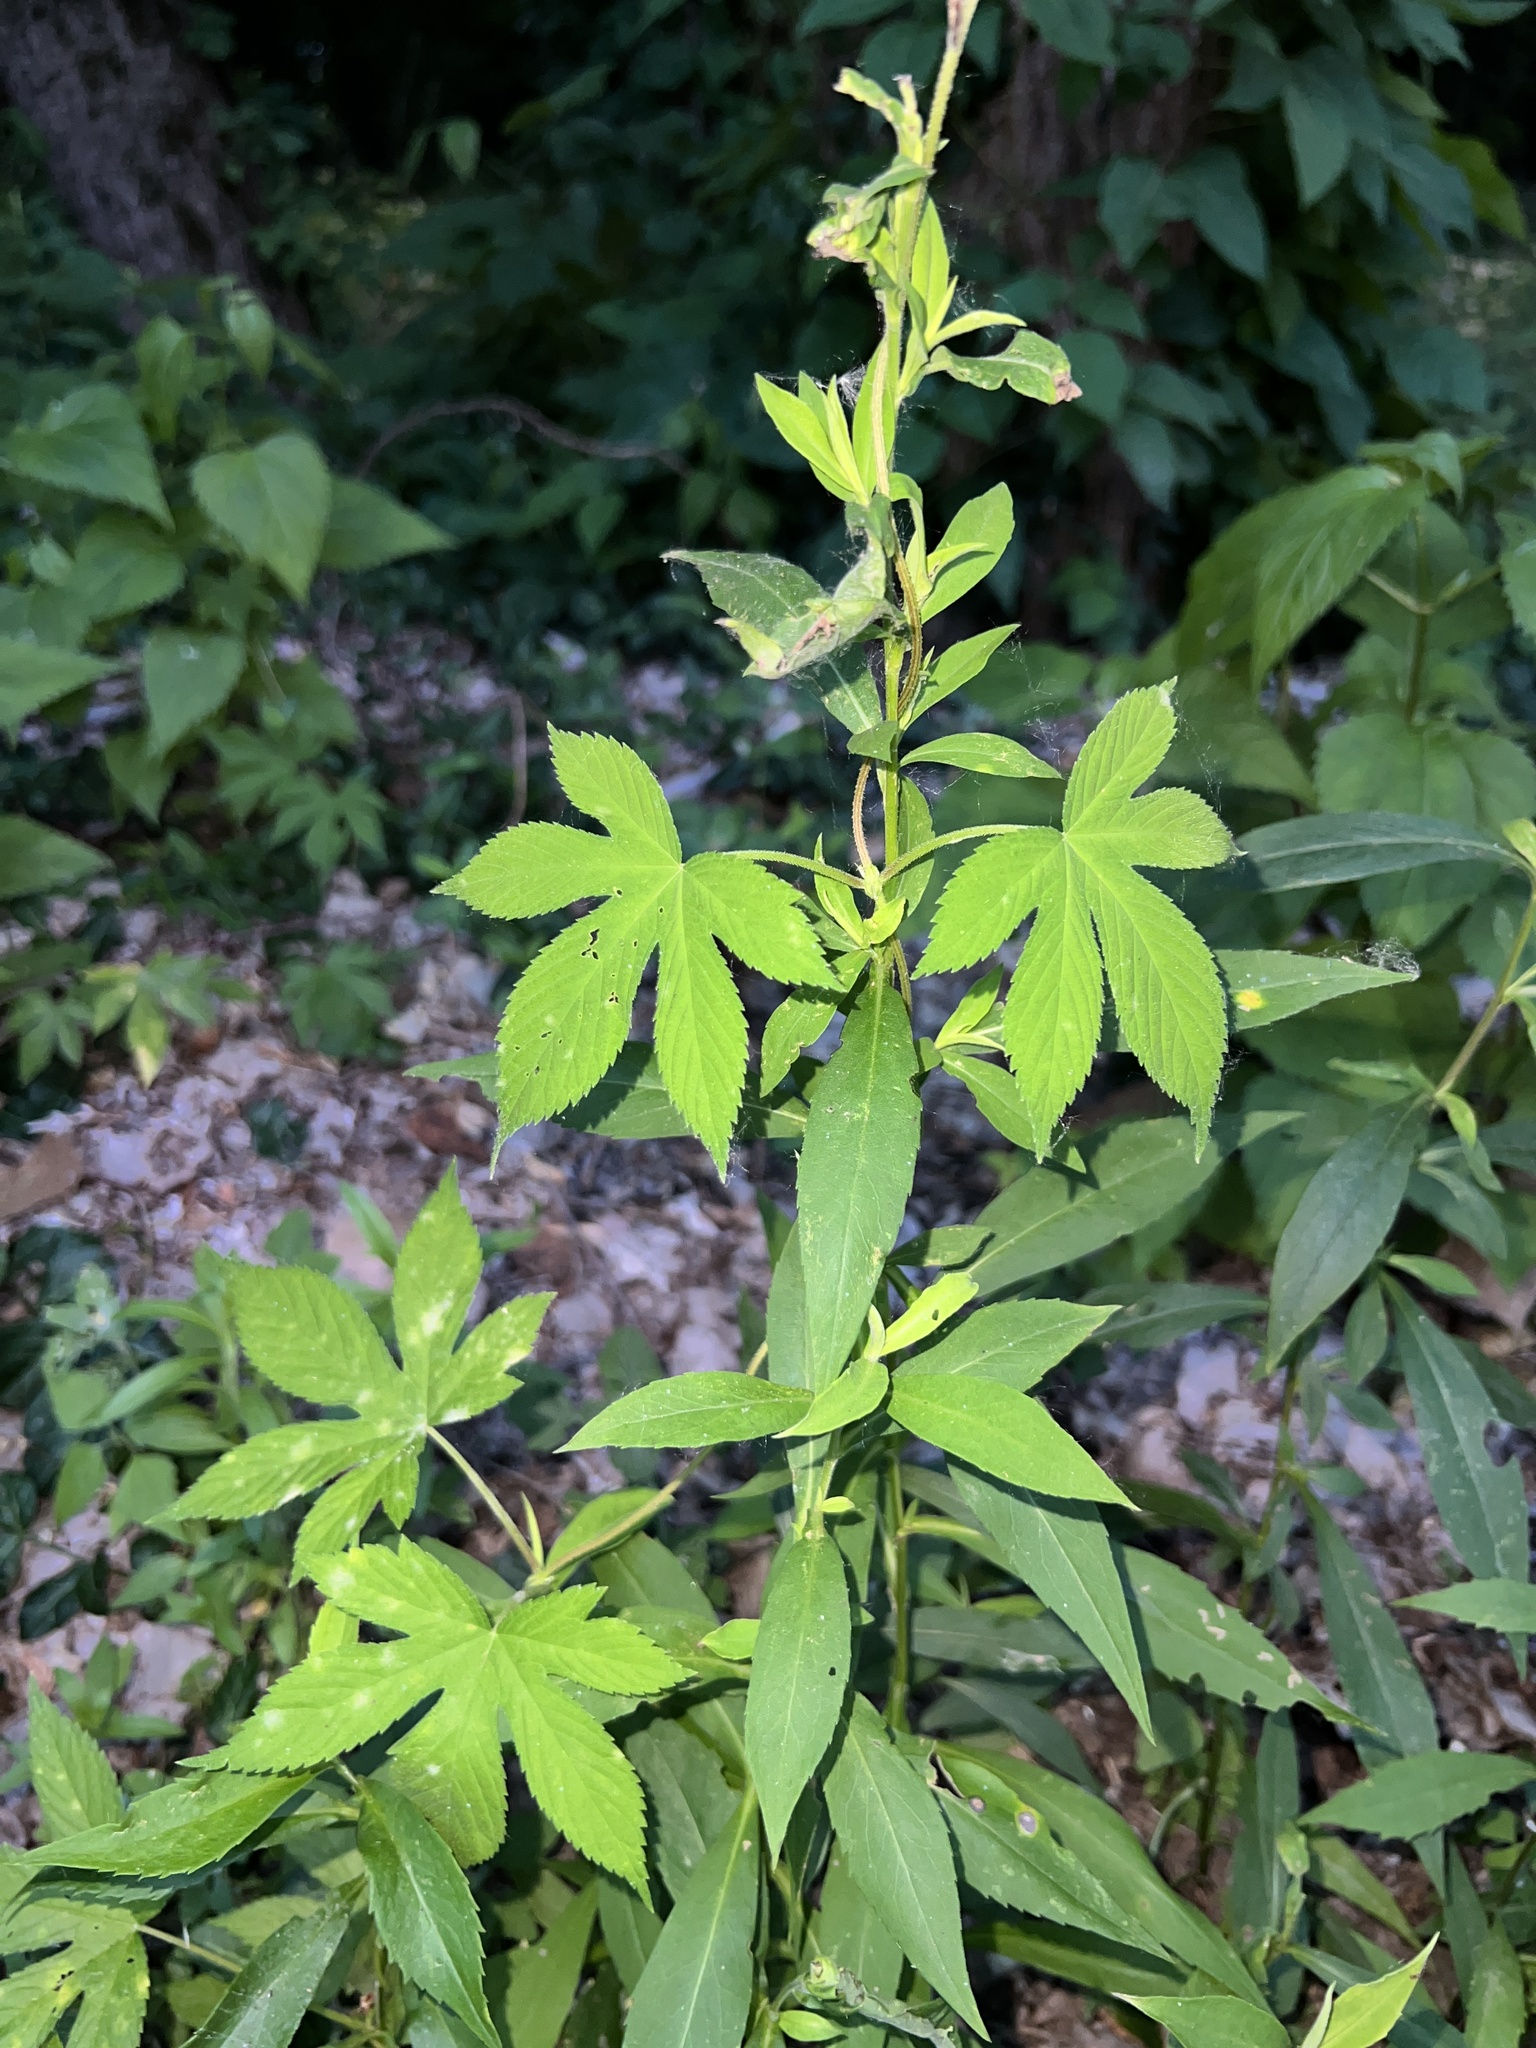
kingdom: Plantae
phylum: Tracheophyta
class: Magnoliopsida
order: Rosales
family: Cannabaceae
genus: Humulus
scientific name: Humulus scandens
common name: Japanese hop
